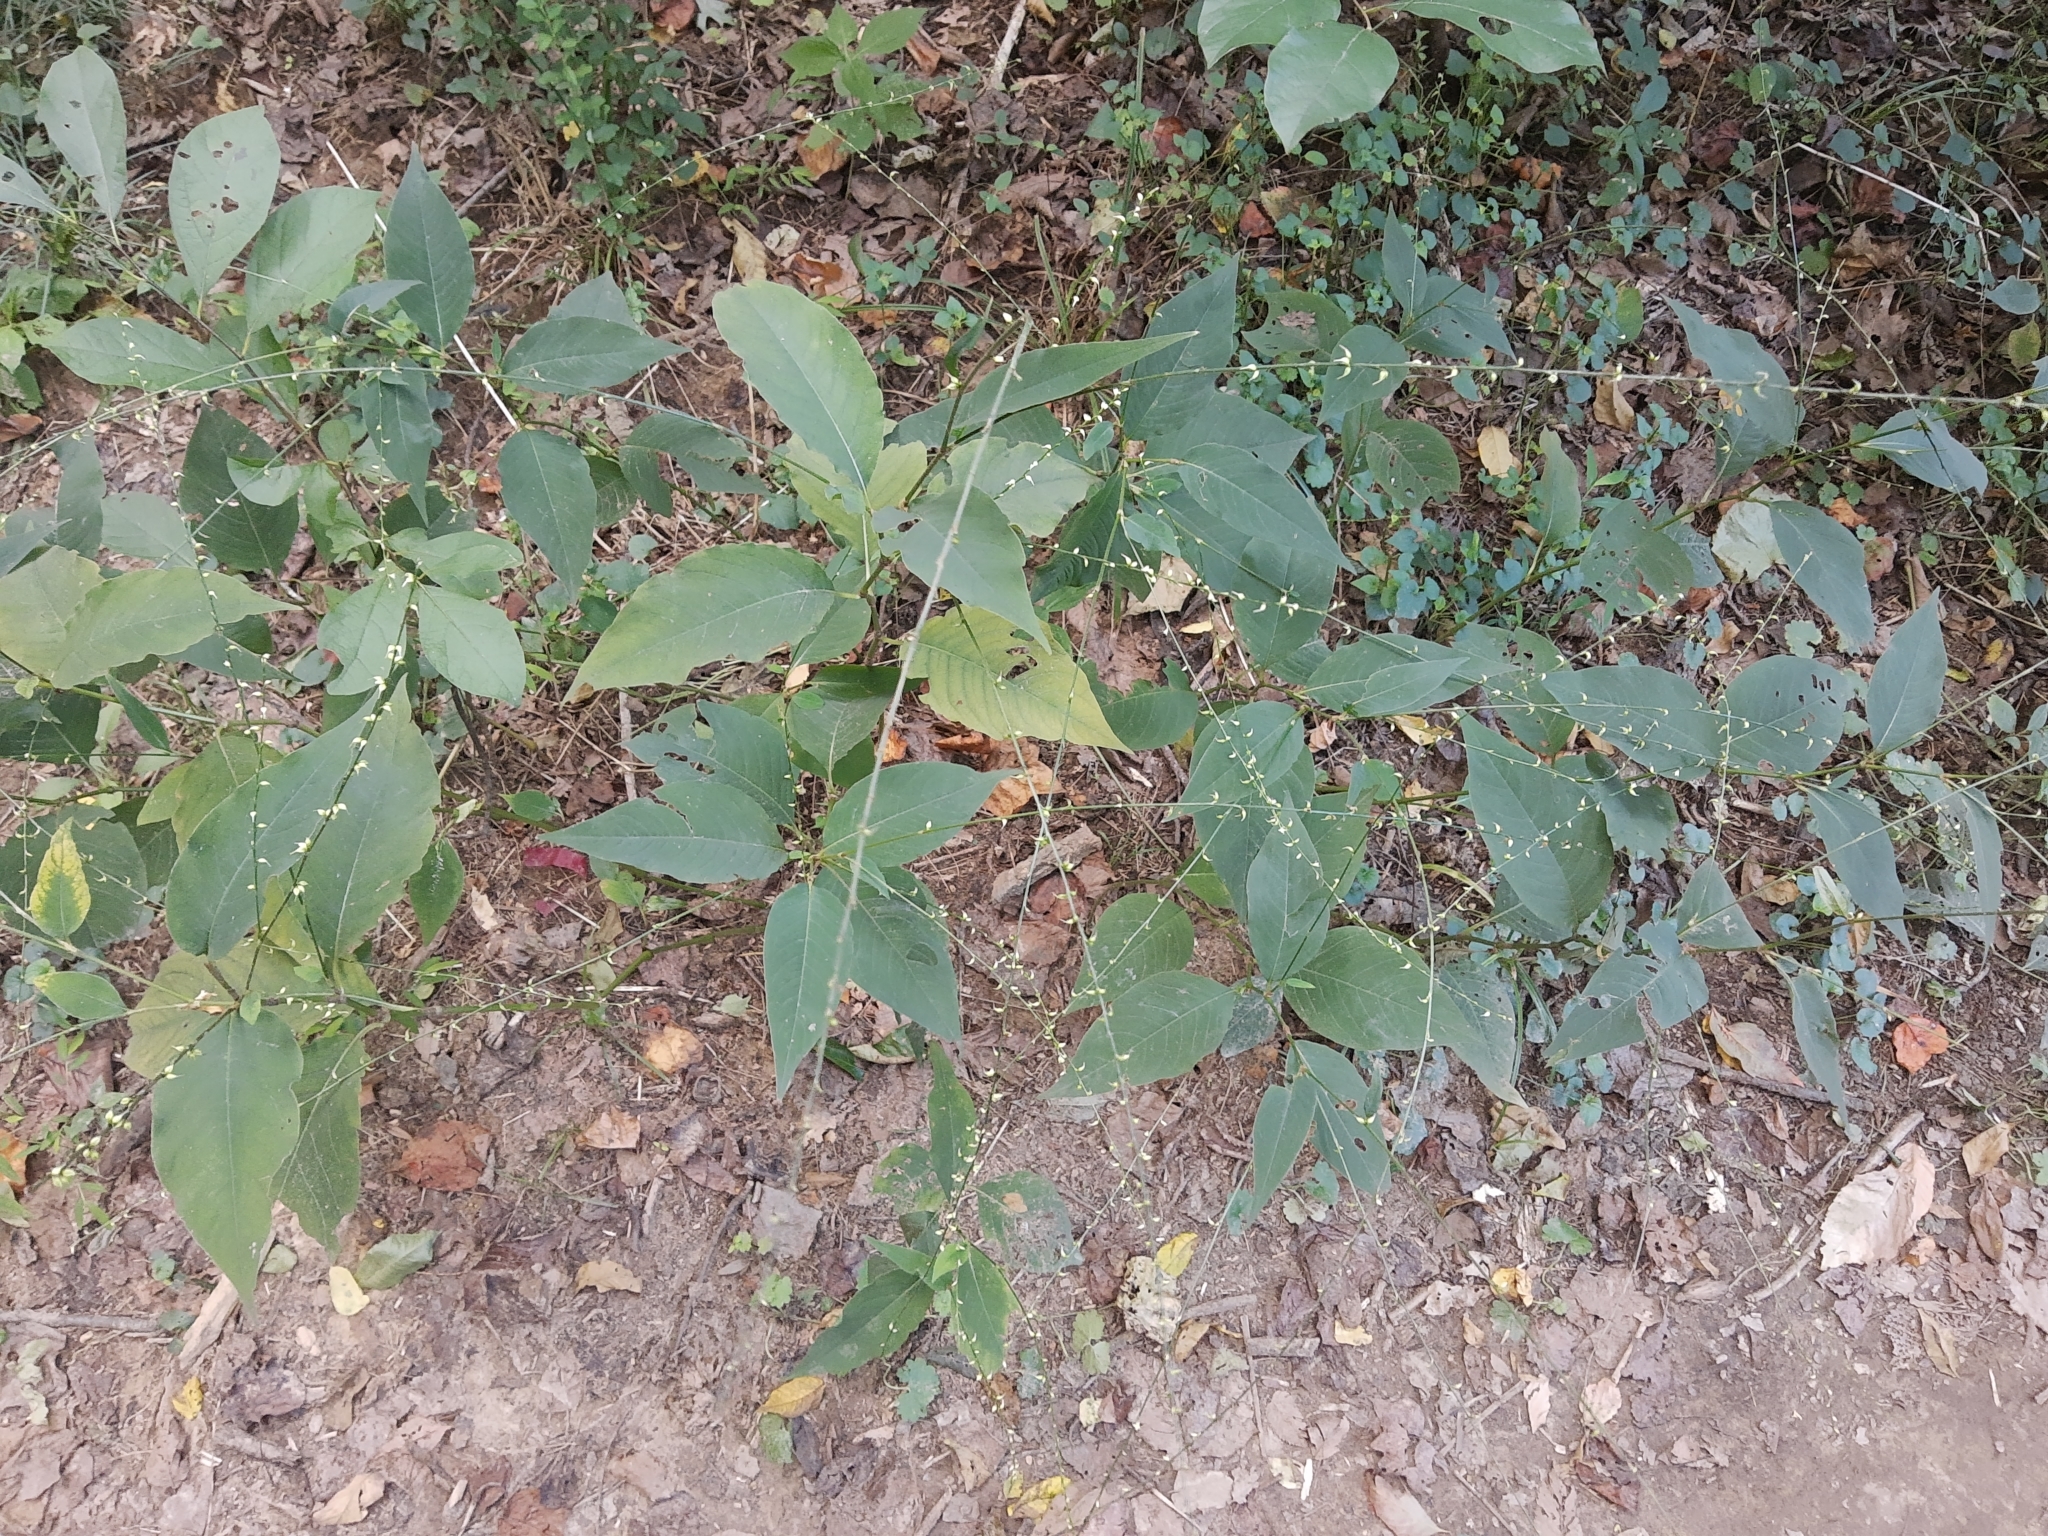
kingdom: Plantae
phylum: Tracheophyta
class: Magnoliopsida
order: Caryophyllales
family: Polygonaceae
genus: Persicaria
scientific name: Persicaria virginiana
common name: Jumpseed
